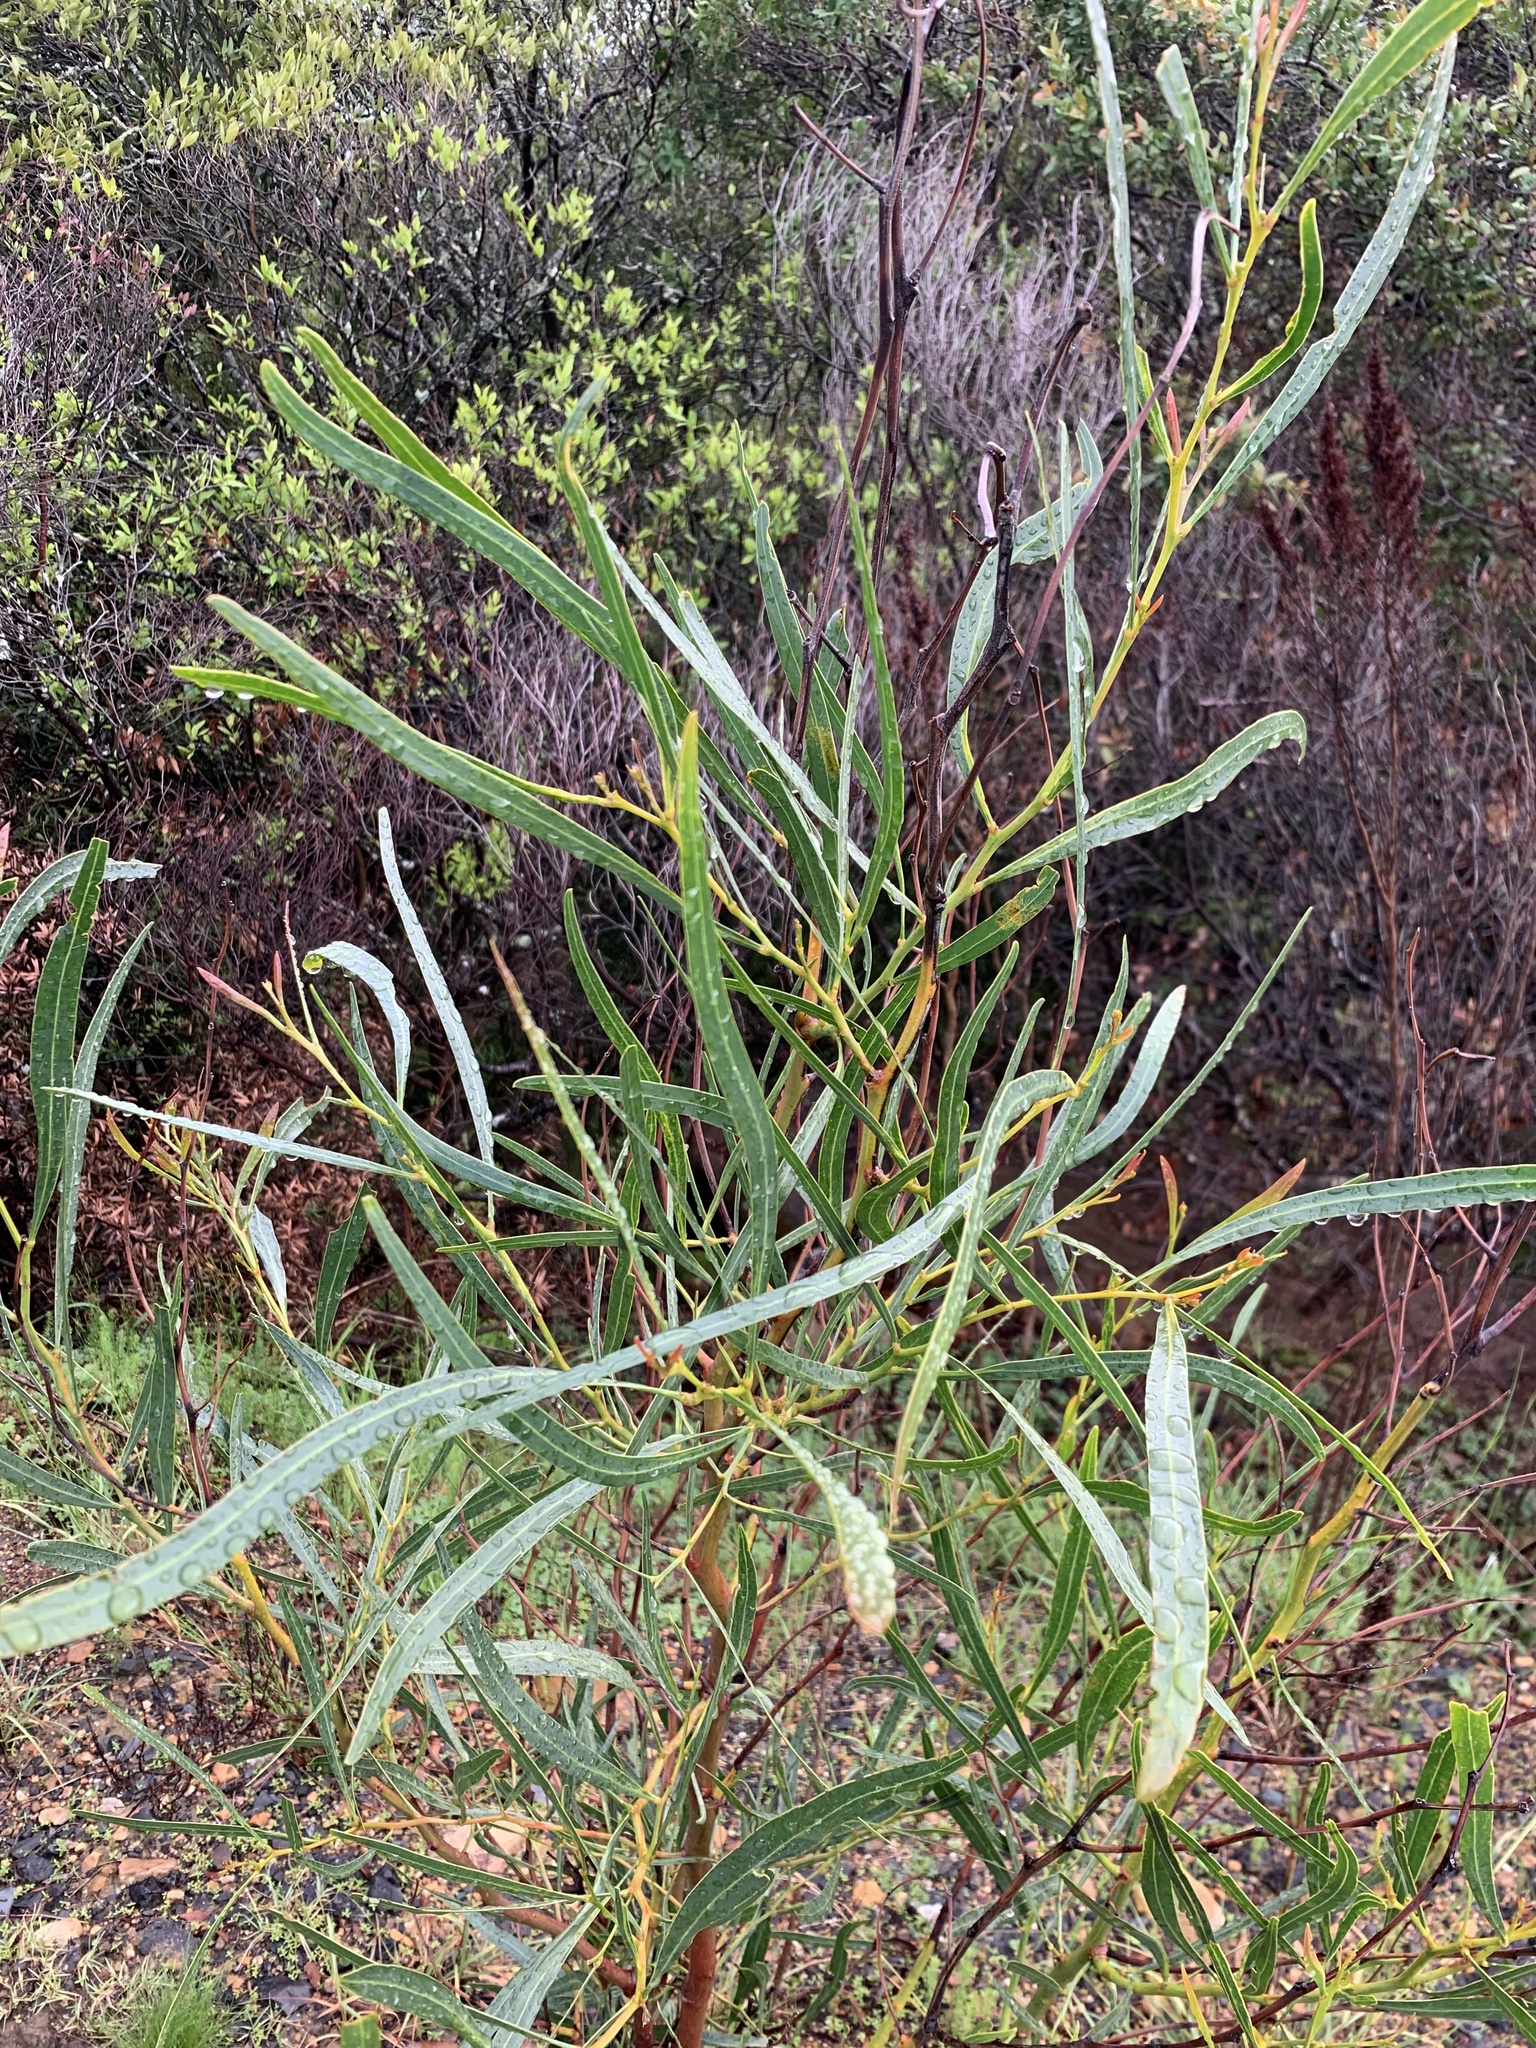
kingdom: Plantae
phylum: Tracheophyta
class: Magnoliopsida
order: Fabales
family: Fabaceae
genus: Acacia
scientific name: Acacia saligna
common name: Orange wattle
